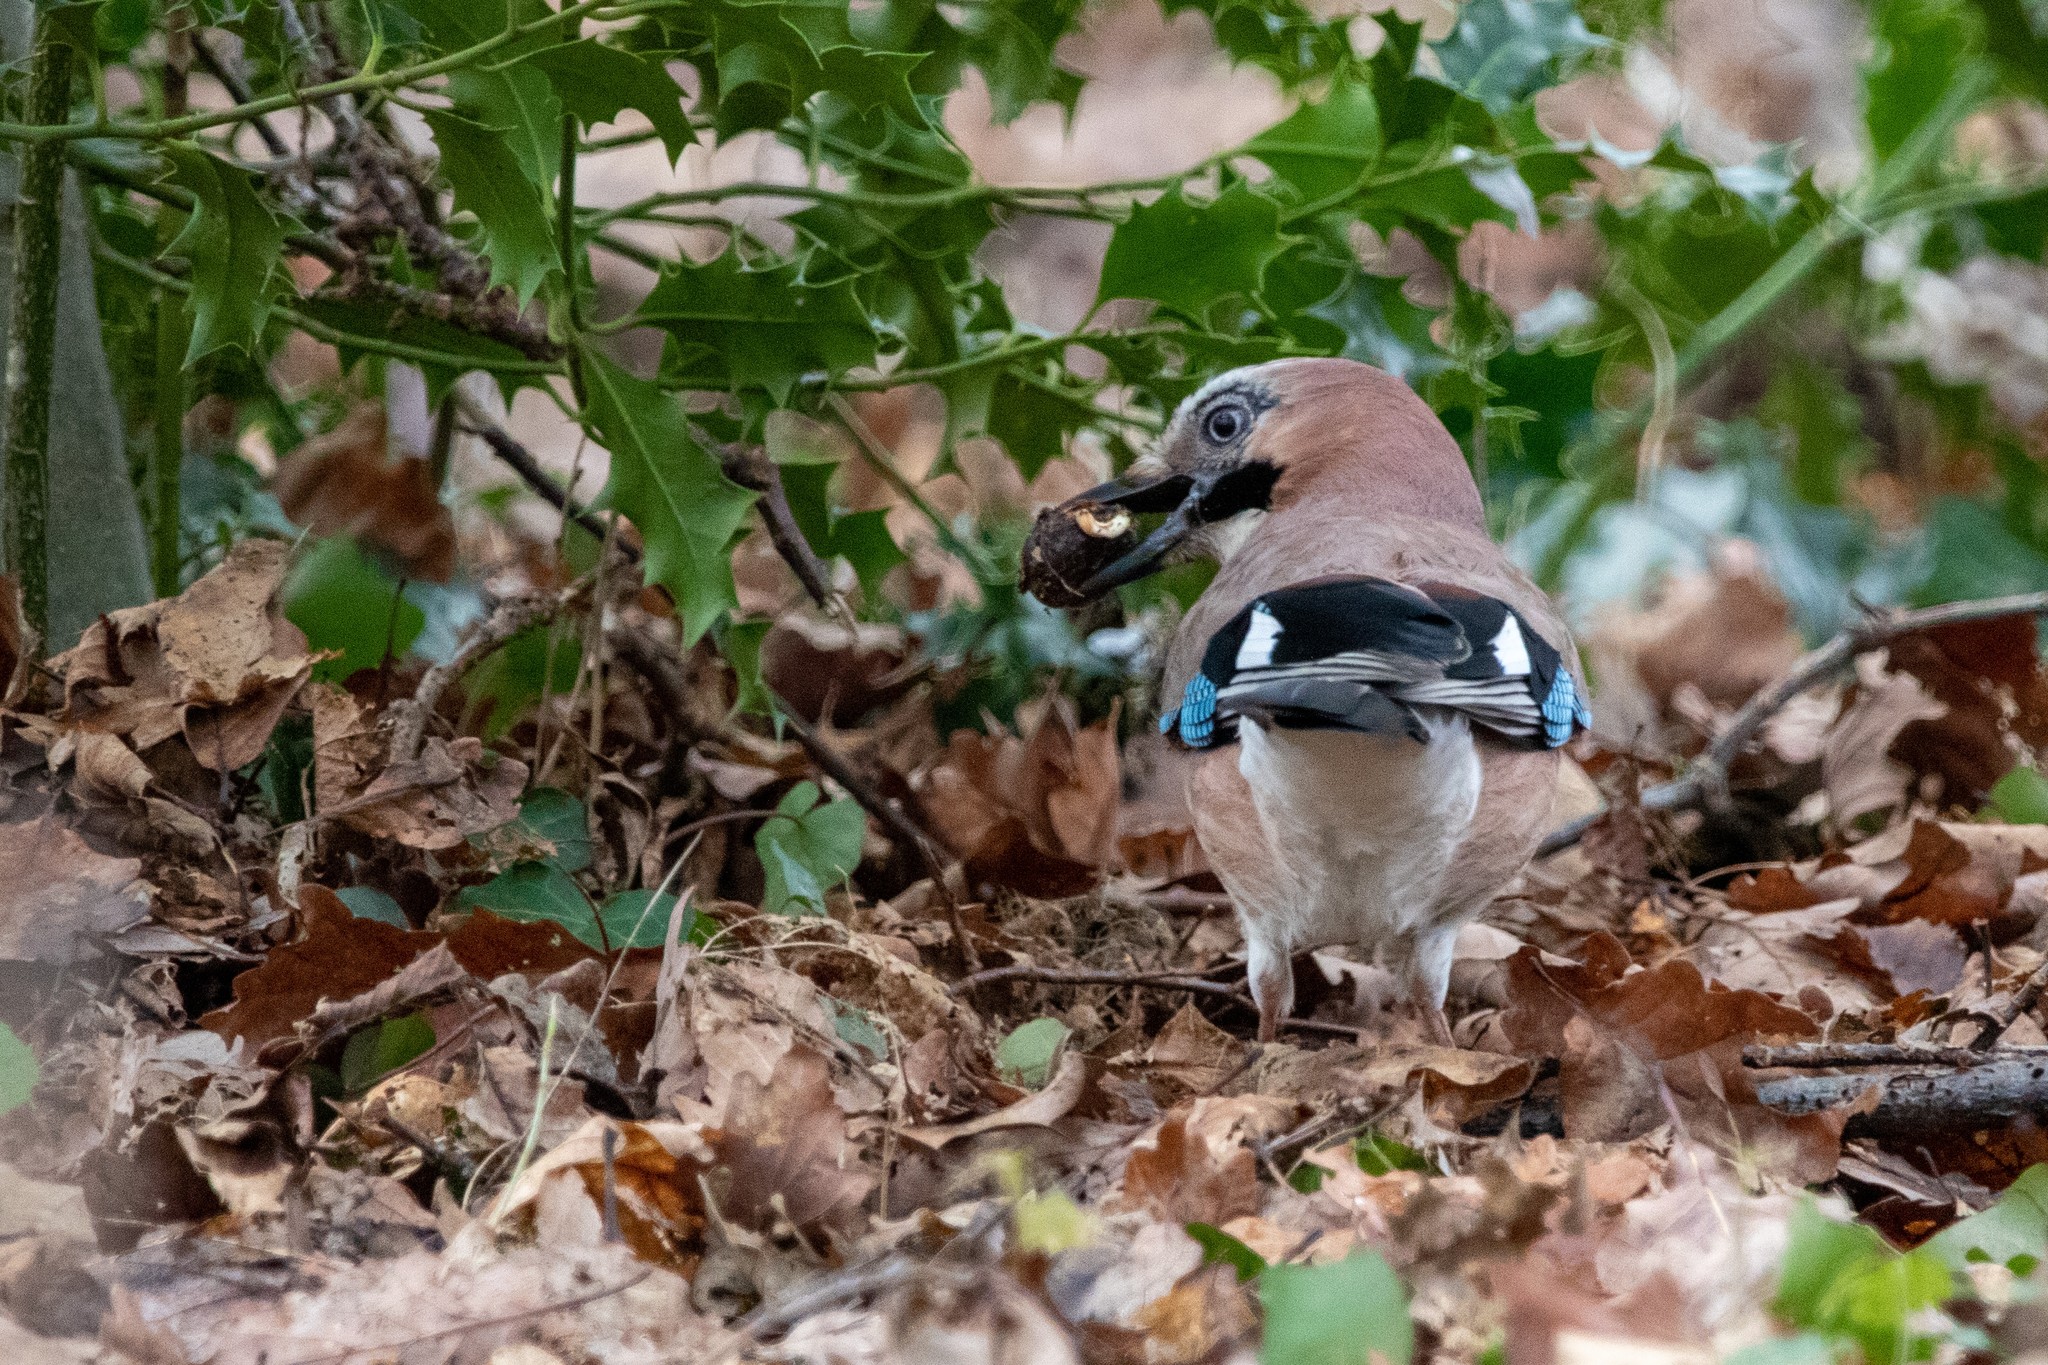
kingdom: Animalia
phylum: Chordata
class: Aves
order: Passeriformes
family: Corvidae
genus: Garrulus
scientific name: Garrulus glandarius
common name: Eurasian jay
